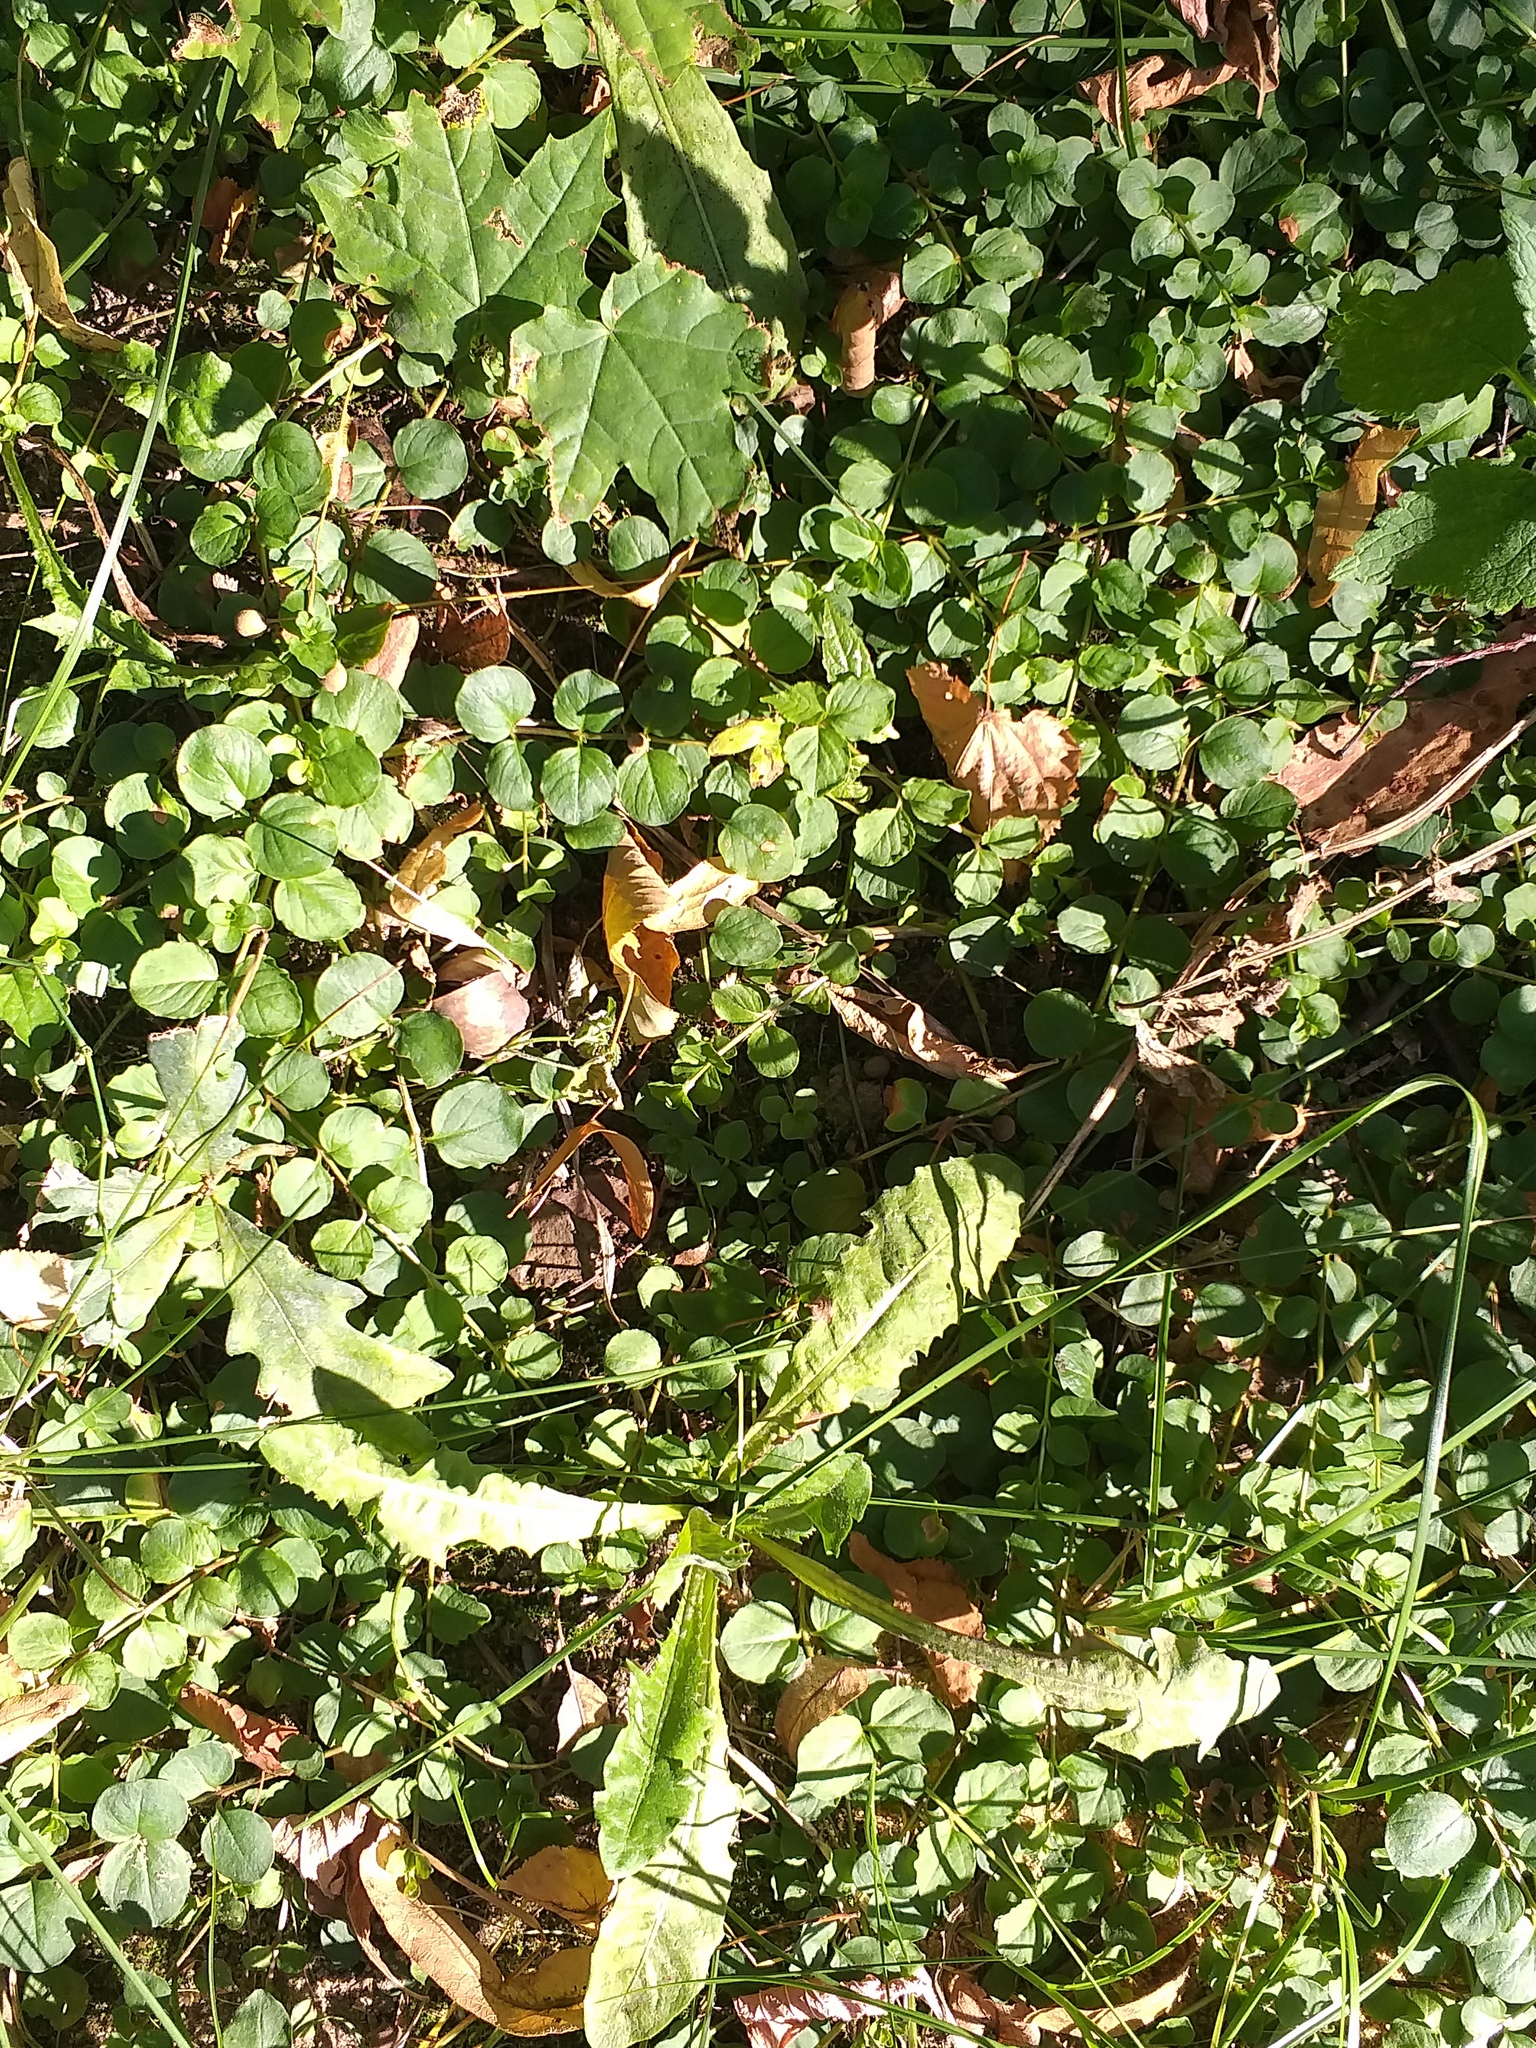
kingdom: Plantae
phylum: Tracheophyta
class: Magnoliopsida
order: Ericales
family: Primulaceae
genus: Lysimachia
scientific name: Lysimachia nummularia
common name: Moneywort
